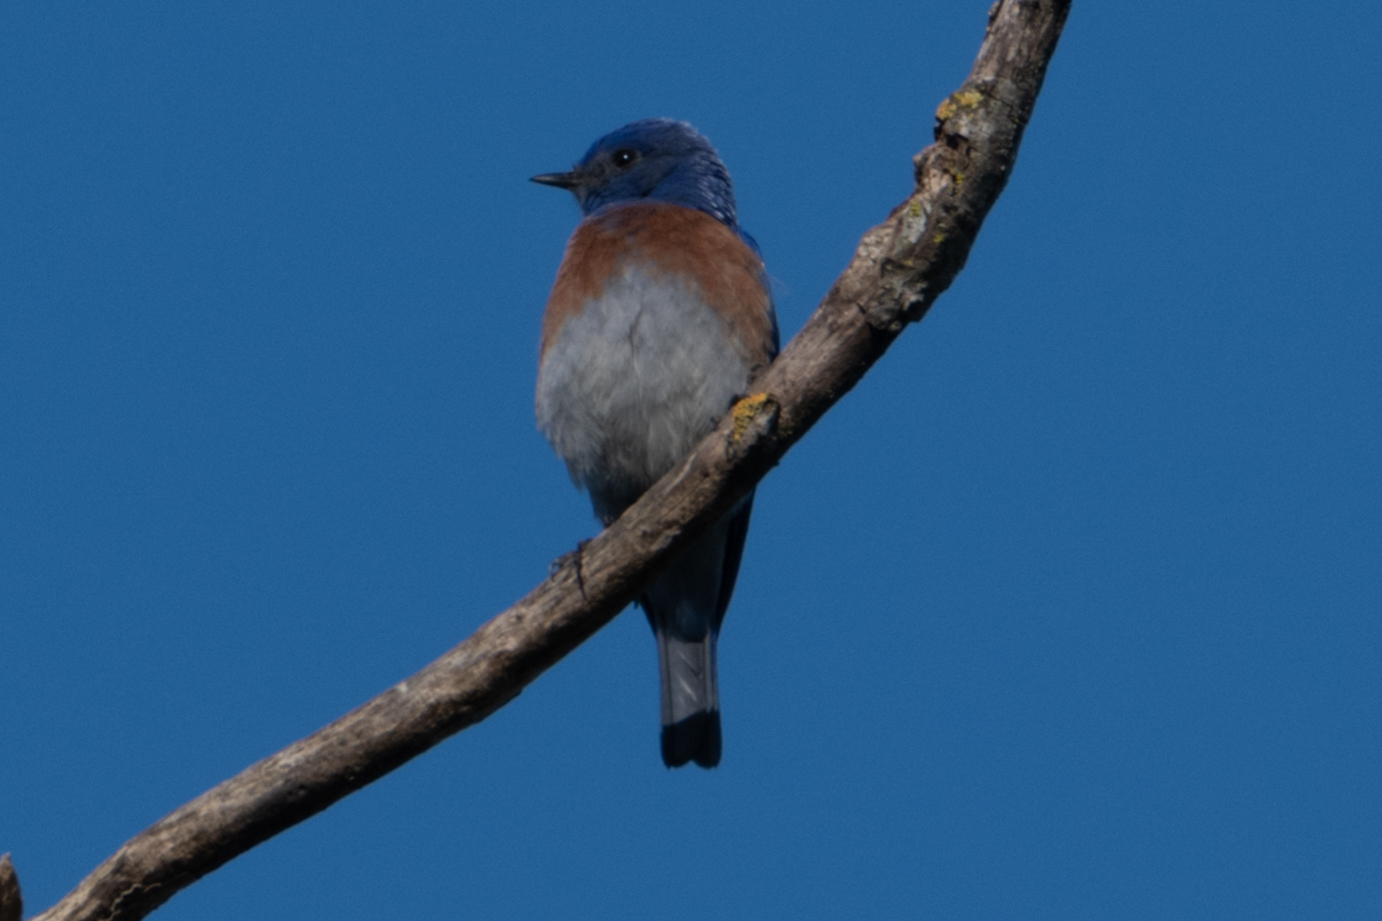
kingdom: Animalia
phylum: Chordata
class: Aves
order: Passeriformes
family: Turdidae
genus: Sialia
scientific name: Sialia mexicana
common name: Western bluebird
